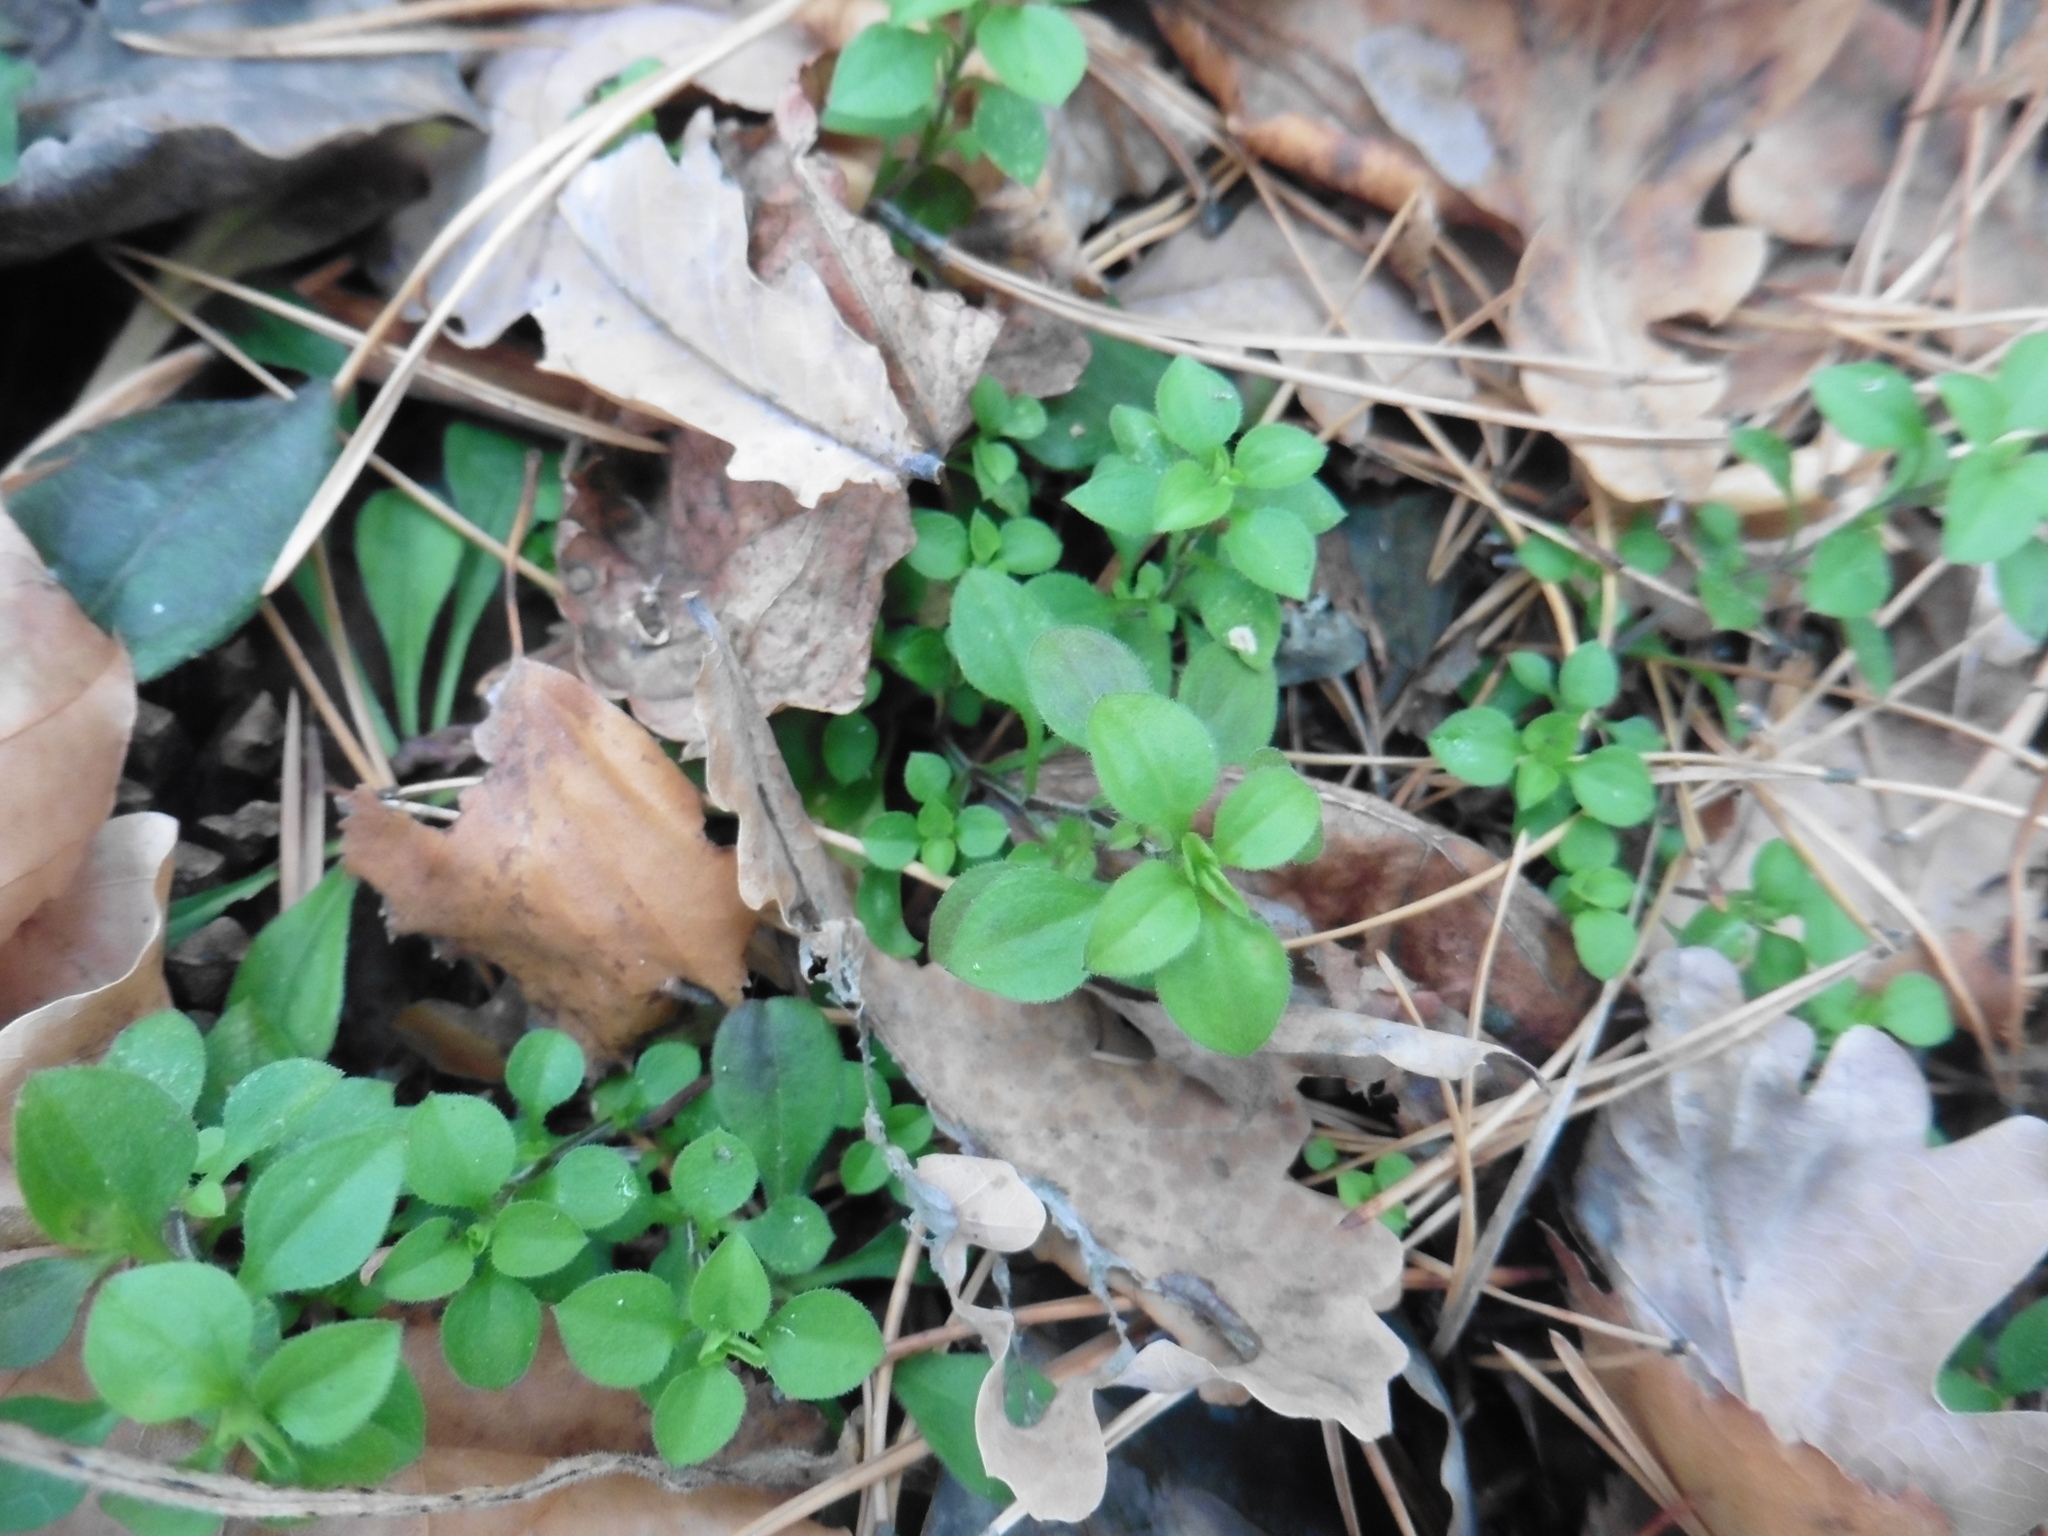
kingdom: Plantae
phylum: Tracheophyta
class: Magnoliopsida
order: Caryophyllales
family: Caryophyllaceae
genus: Moehringia
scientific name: Moehringia trinervia
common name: Three-nerved sandwort
